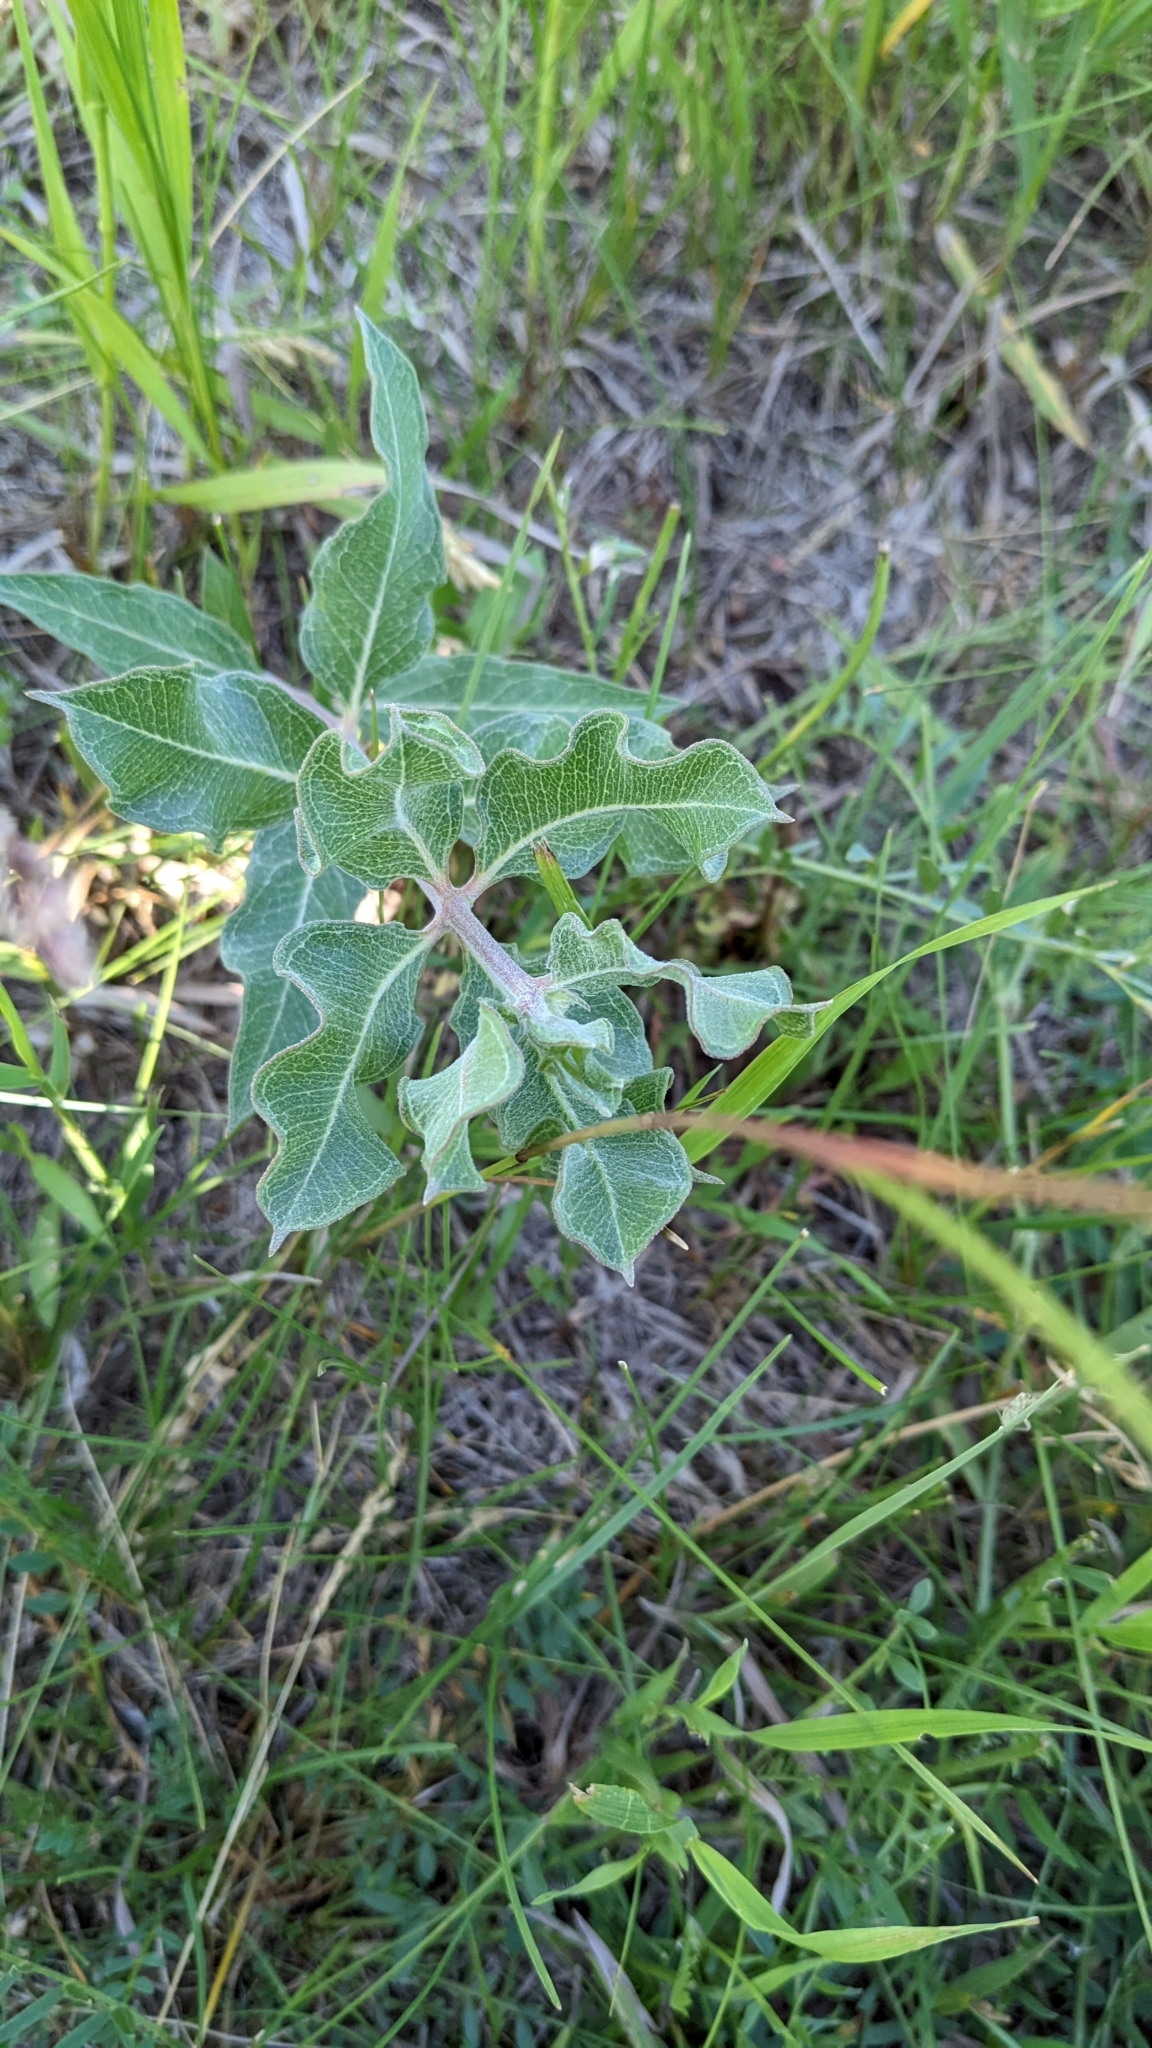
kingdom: Plantae
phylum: Tracheophyta
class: Magnoliopsida
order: Gentianales
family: Apocynaceae
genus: Asclepias
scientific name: Asclepias viridiflora
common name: Green comet milkweed
